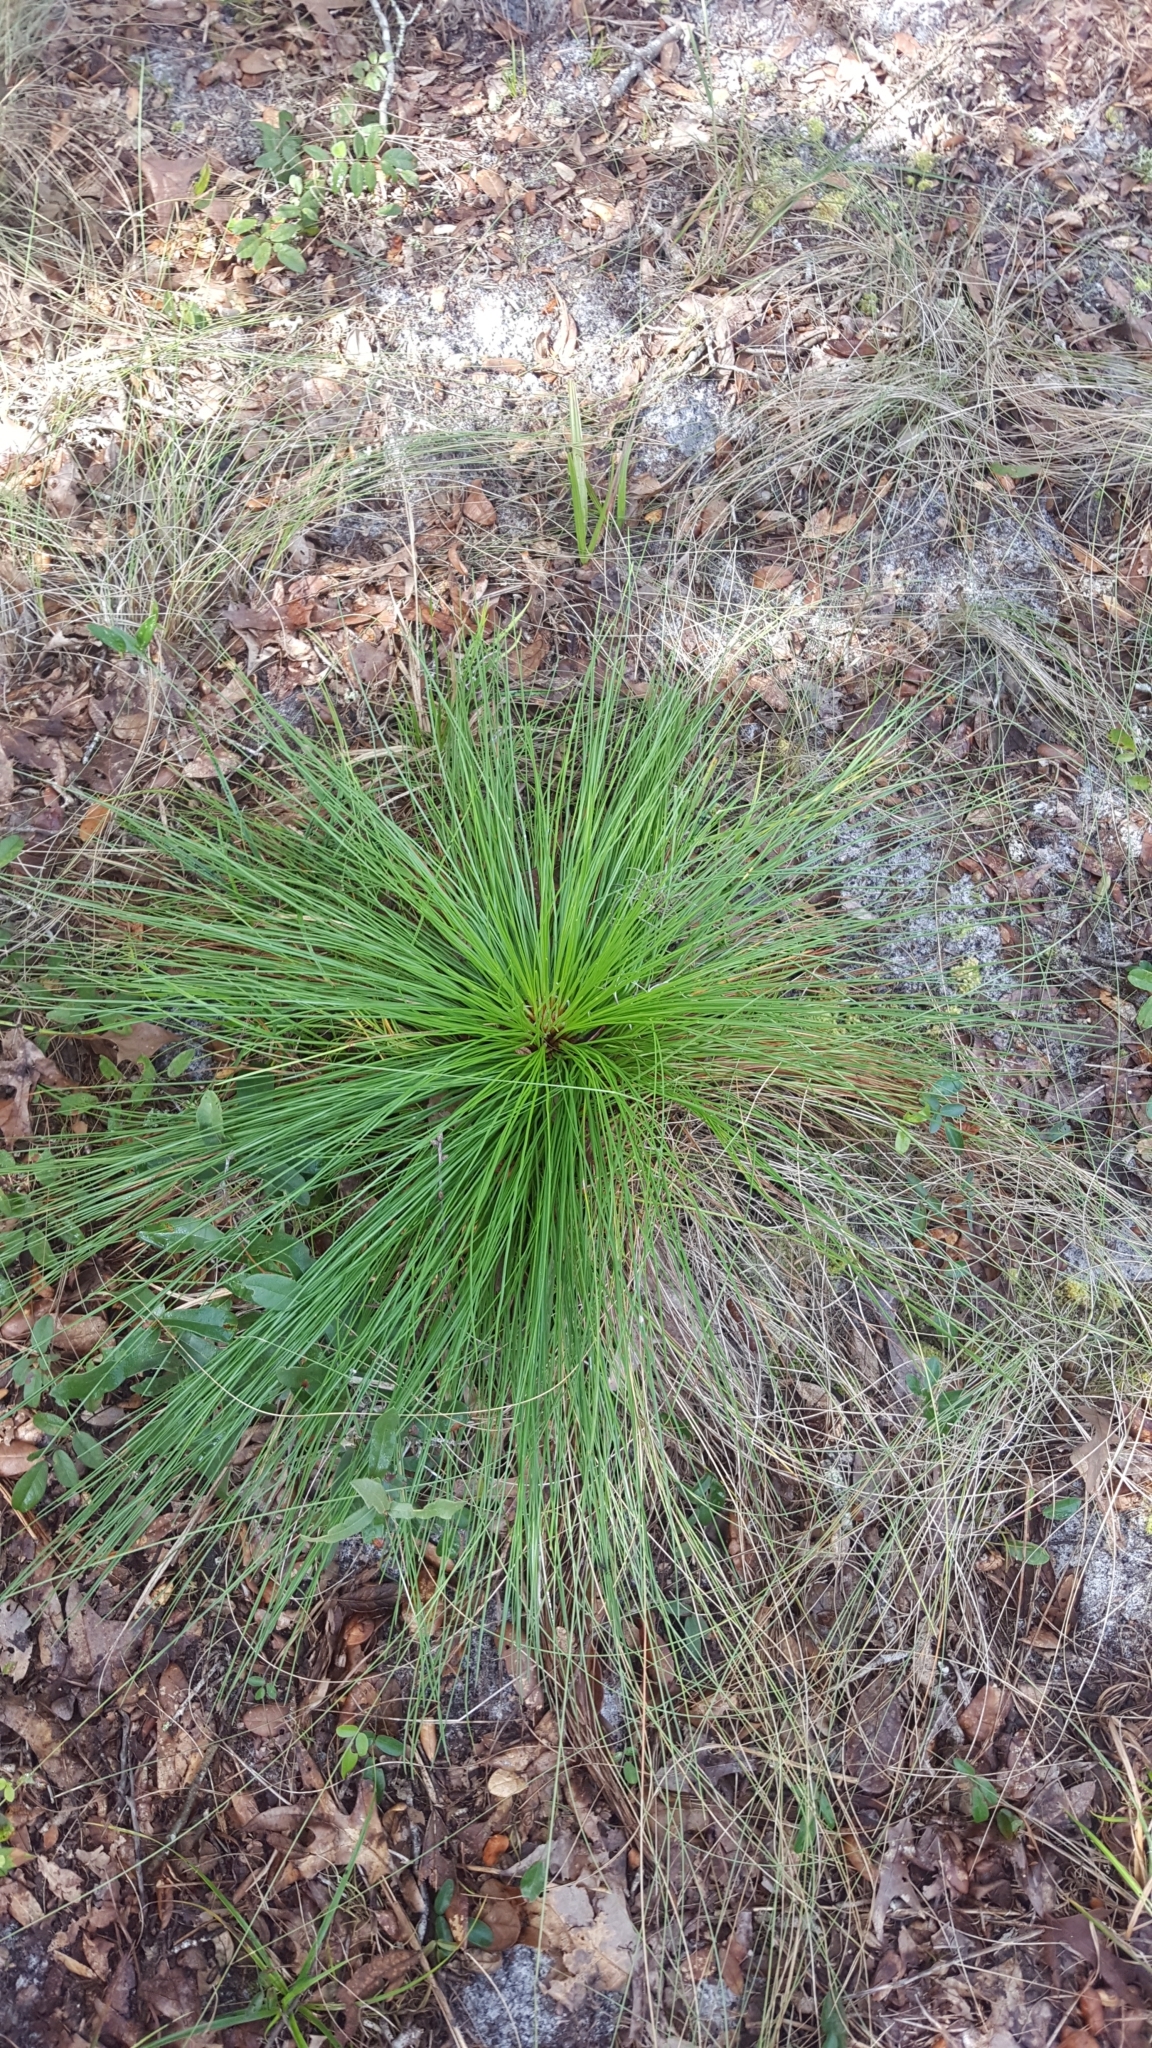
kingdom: Plantae
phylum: Tracheophyta
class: Pinopsida
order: Pinales
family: Pinaceae
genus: Pinus
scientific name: Pinus palustris
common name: Longleaf pine
